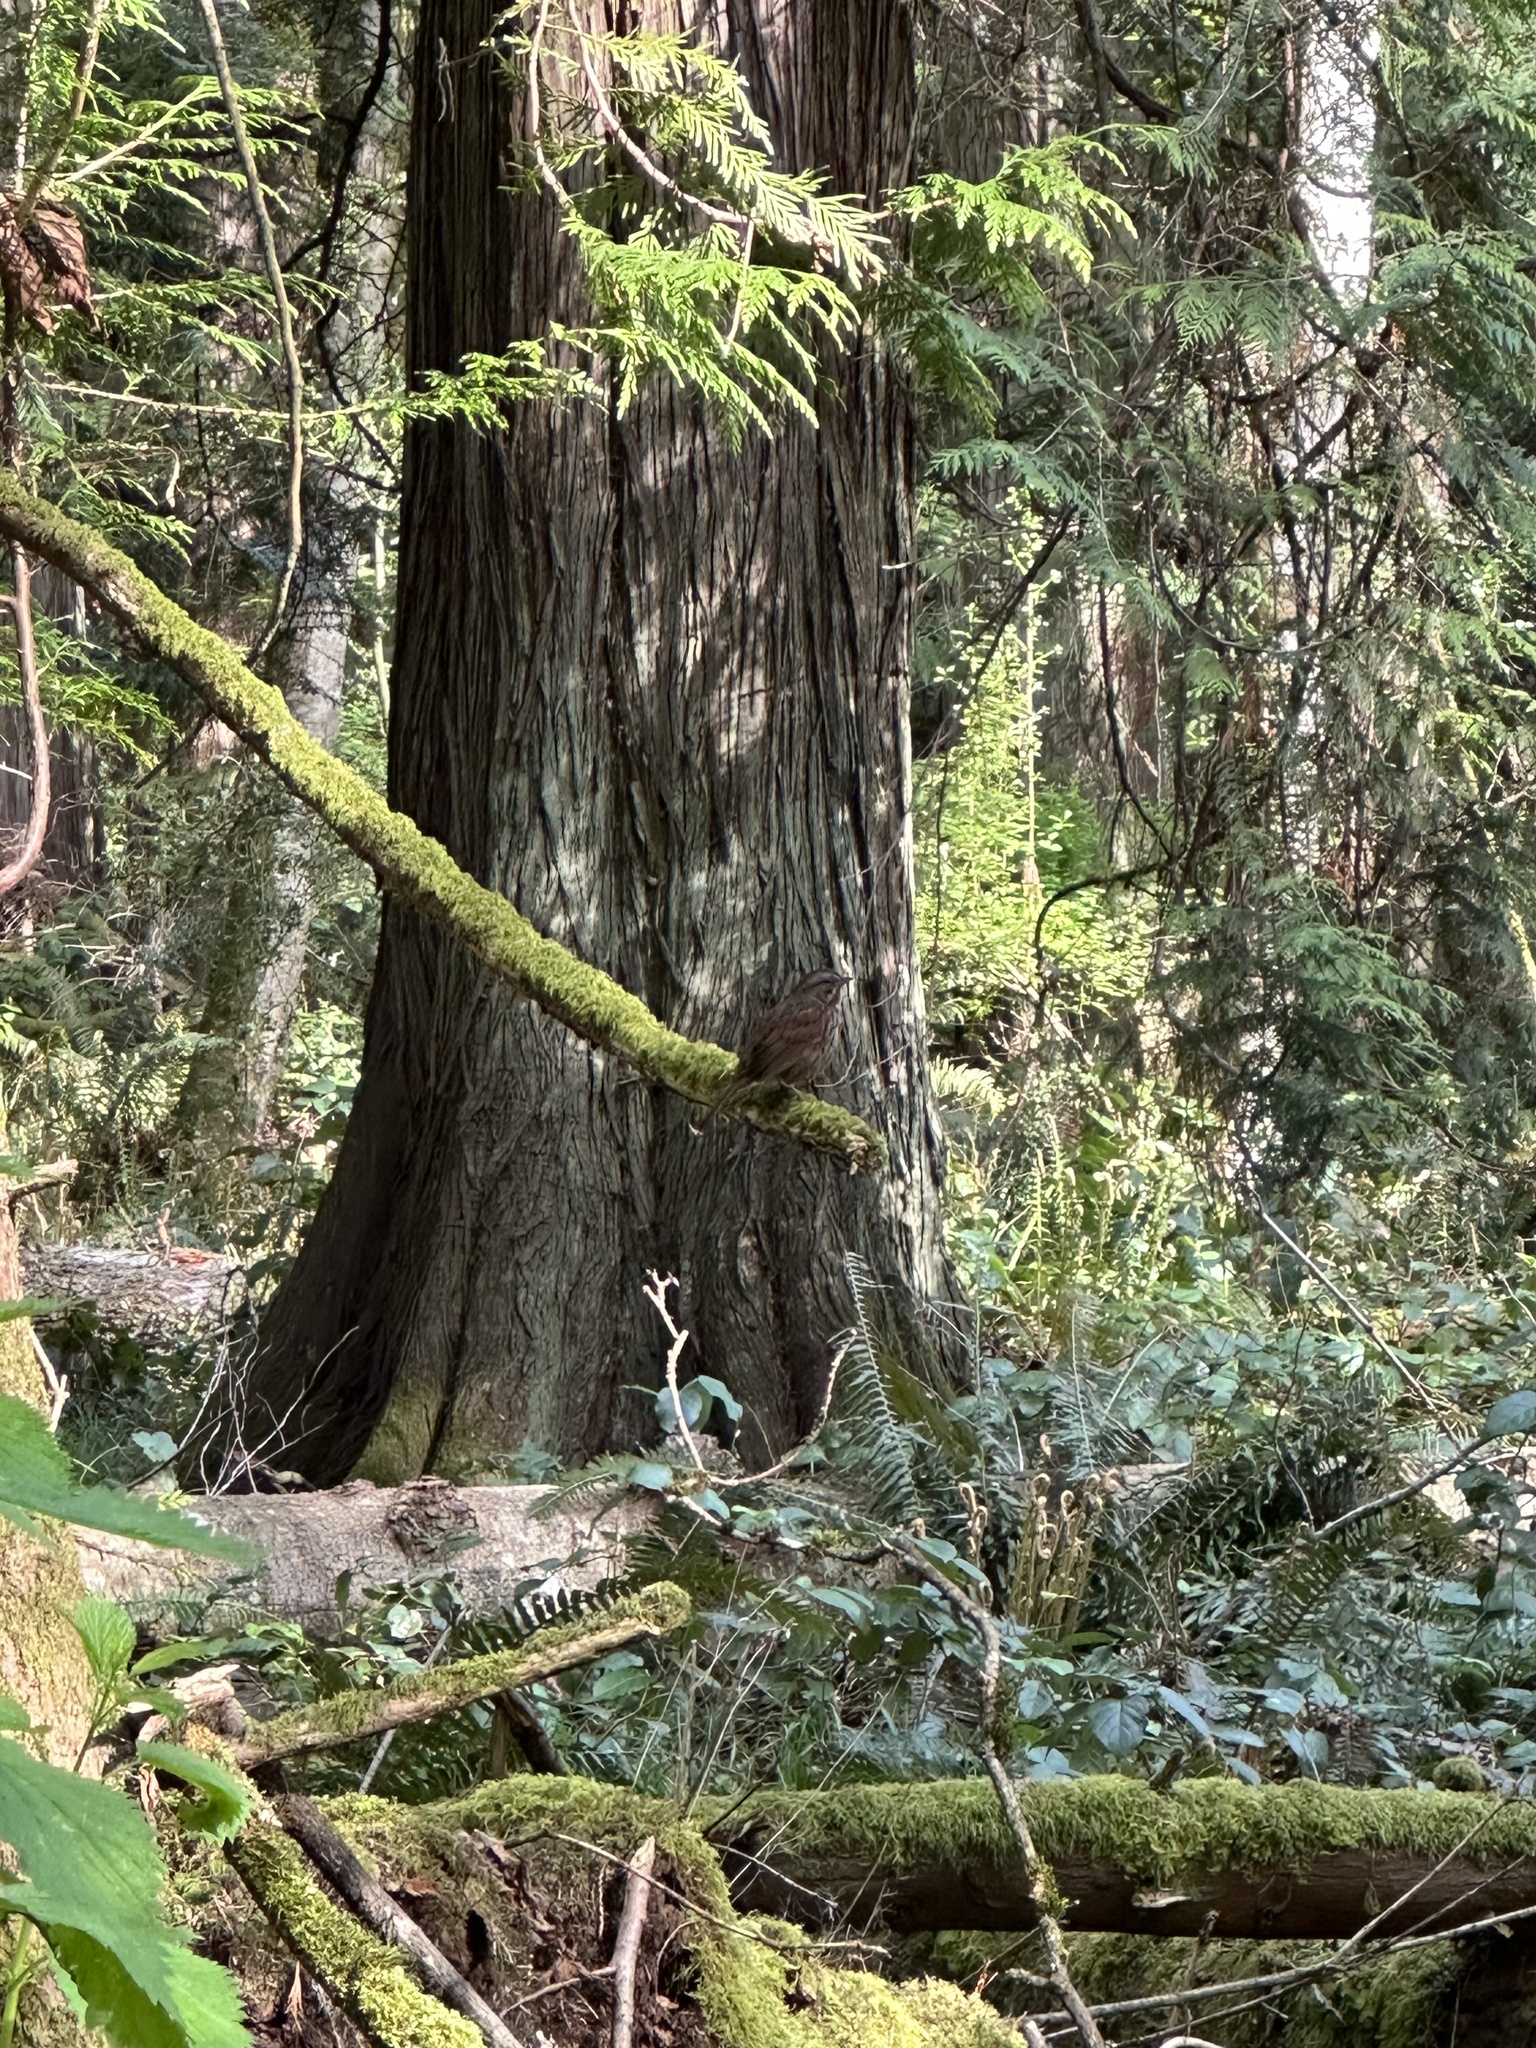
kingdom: Animalia
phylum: Chordata
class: Aves
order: Passeriformes
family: Passerellidae
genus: Melospiza
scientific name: Melospiza melodia
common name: Song sparrow
